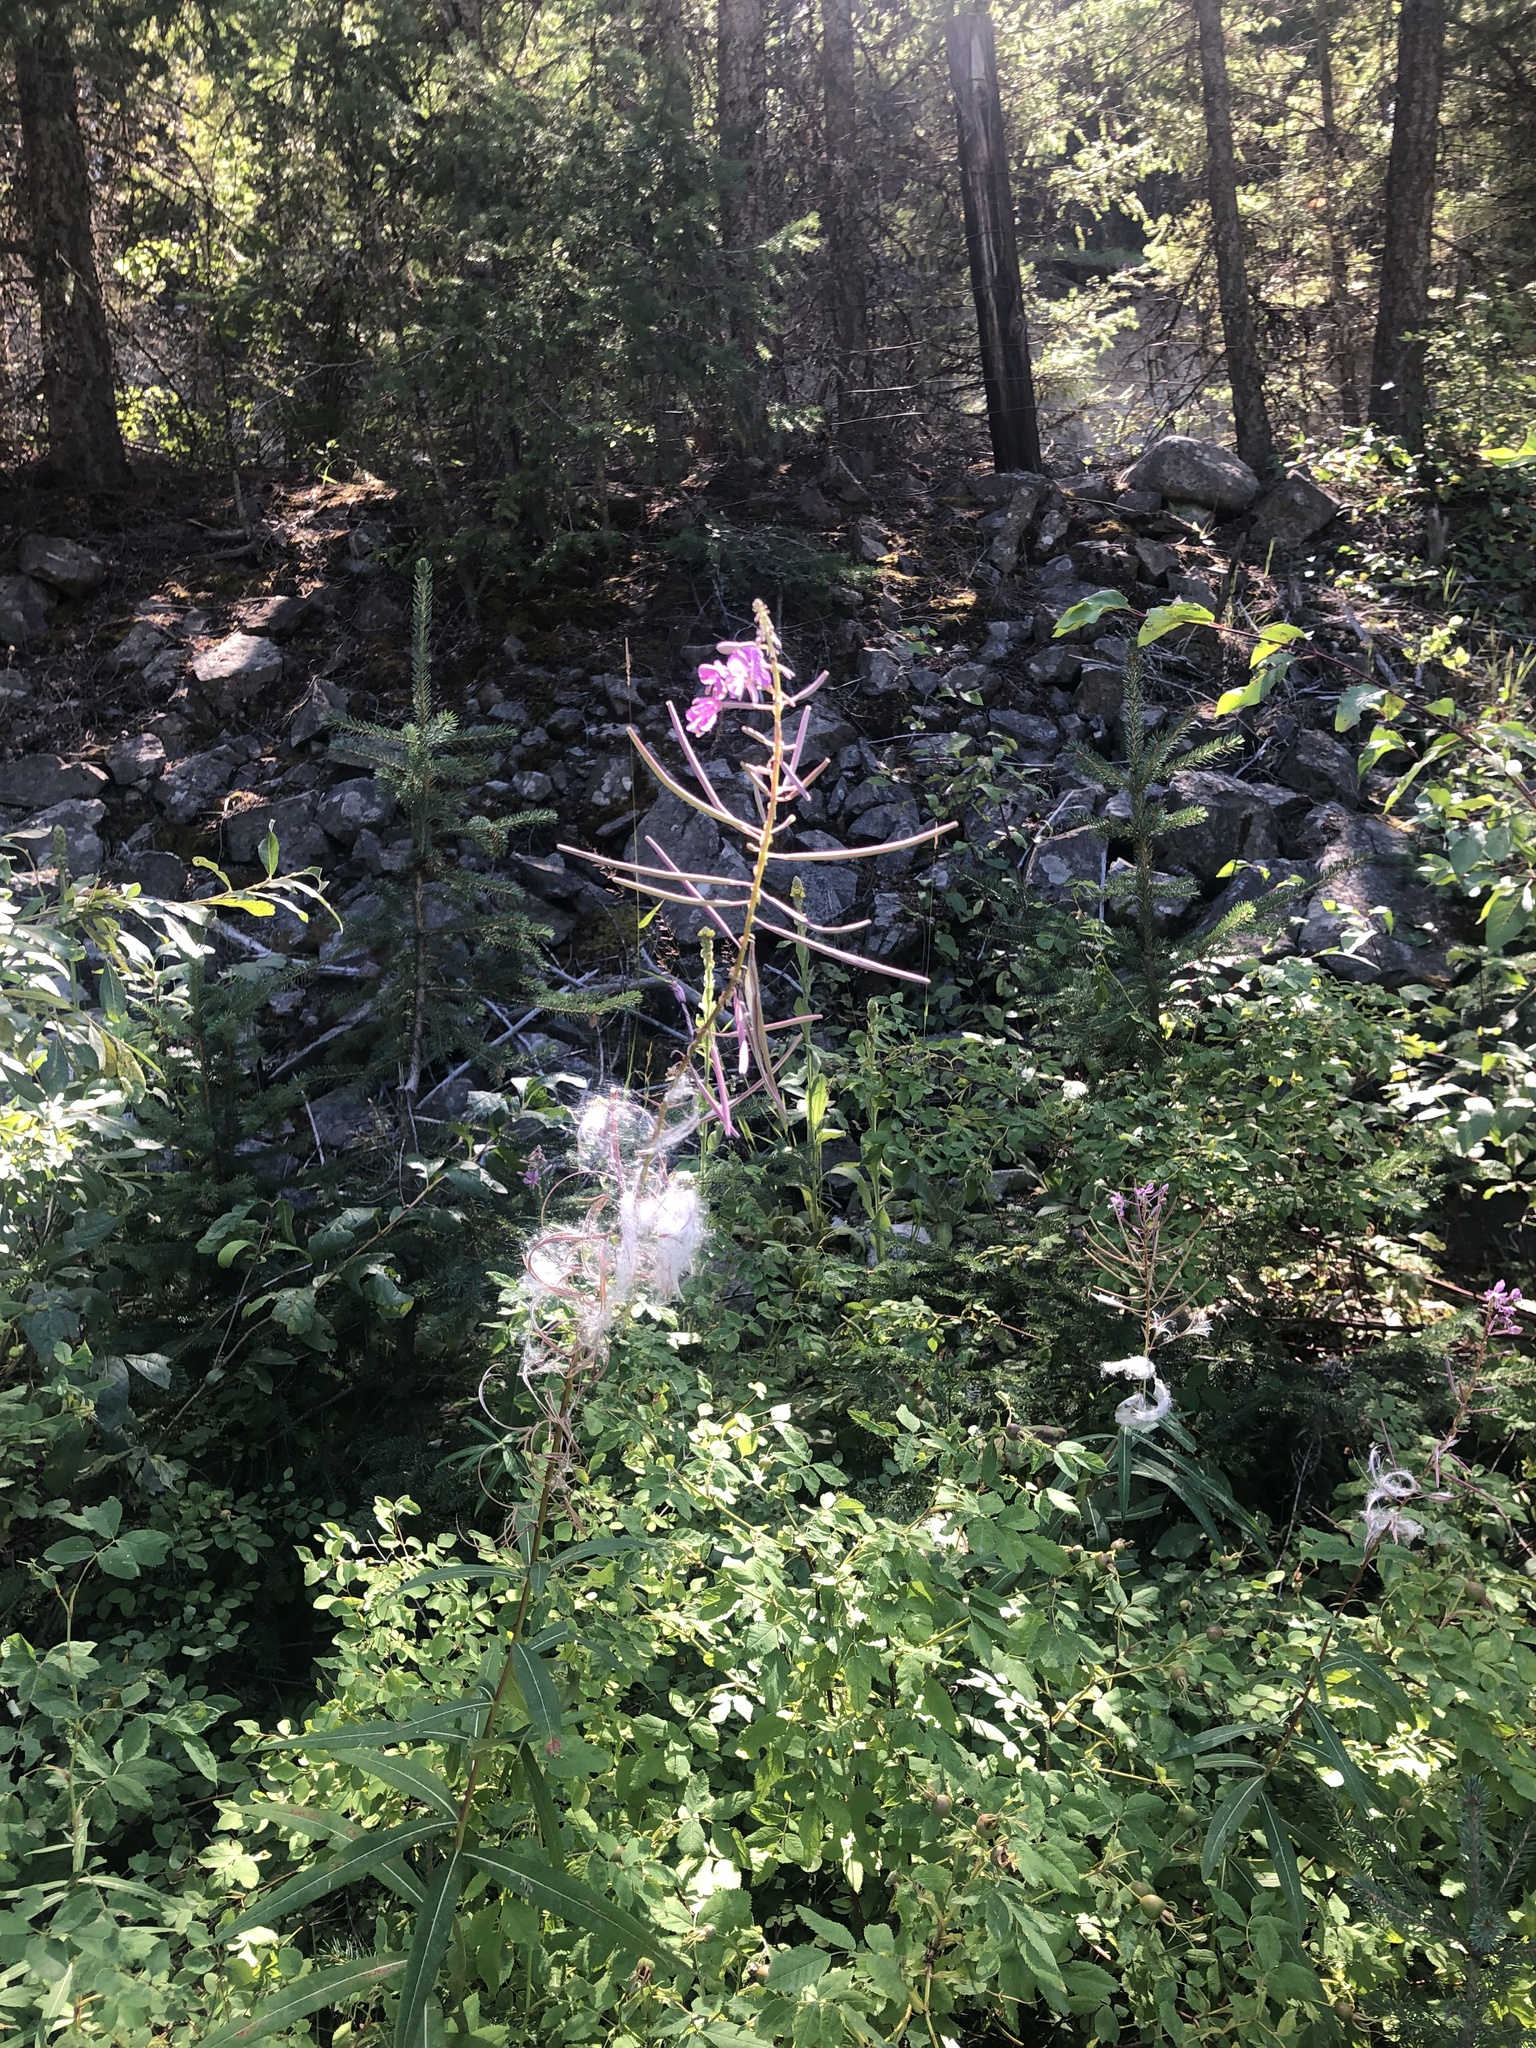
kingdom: Plantae
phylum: Tracheophyta
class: Magnoliopsida
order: Myrtales
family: Onagraceae
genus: Chamaenerion
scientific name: Chamaenerion angustifolium
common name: Fireweed
